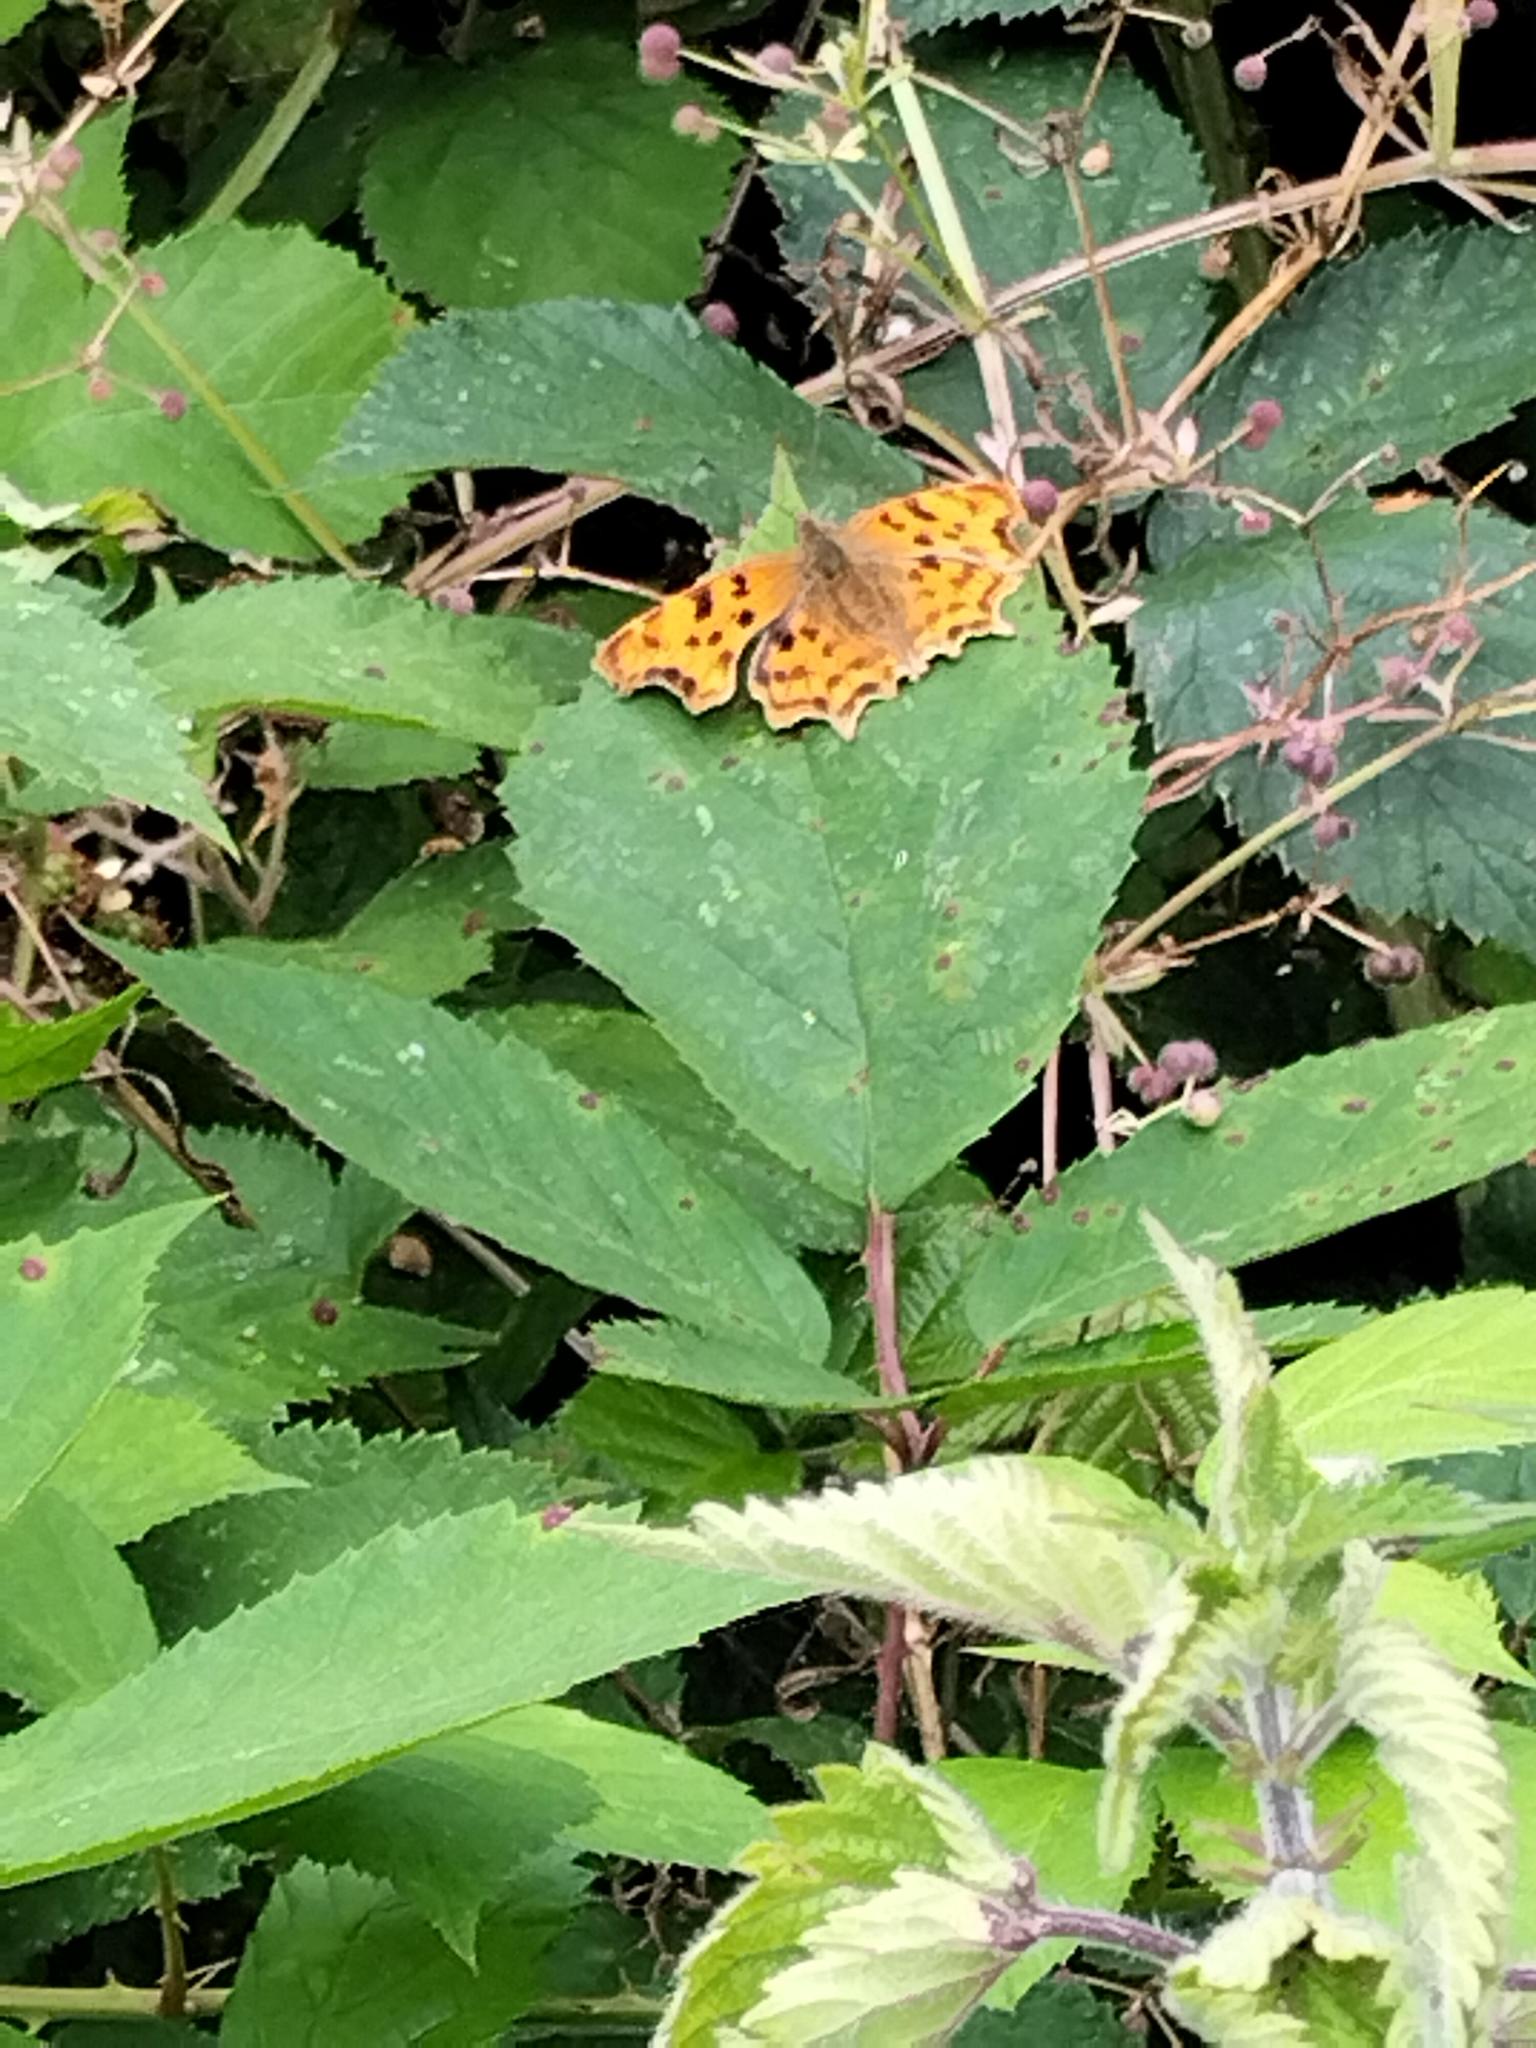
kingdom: Animalia
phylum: Arthropoda
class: Insecta
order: Lepidoptera
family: Nymphalidae
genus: Polygonia
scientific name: Polygonia c-album
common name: Comma
